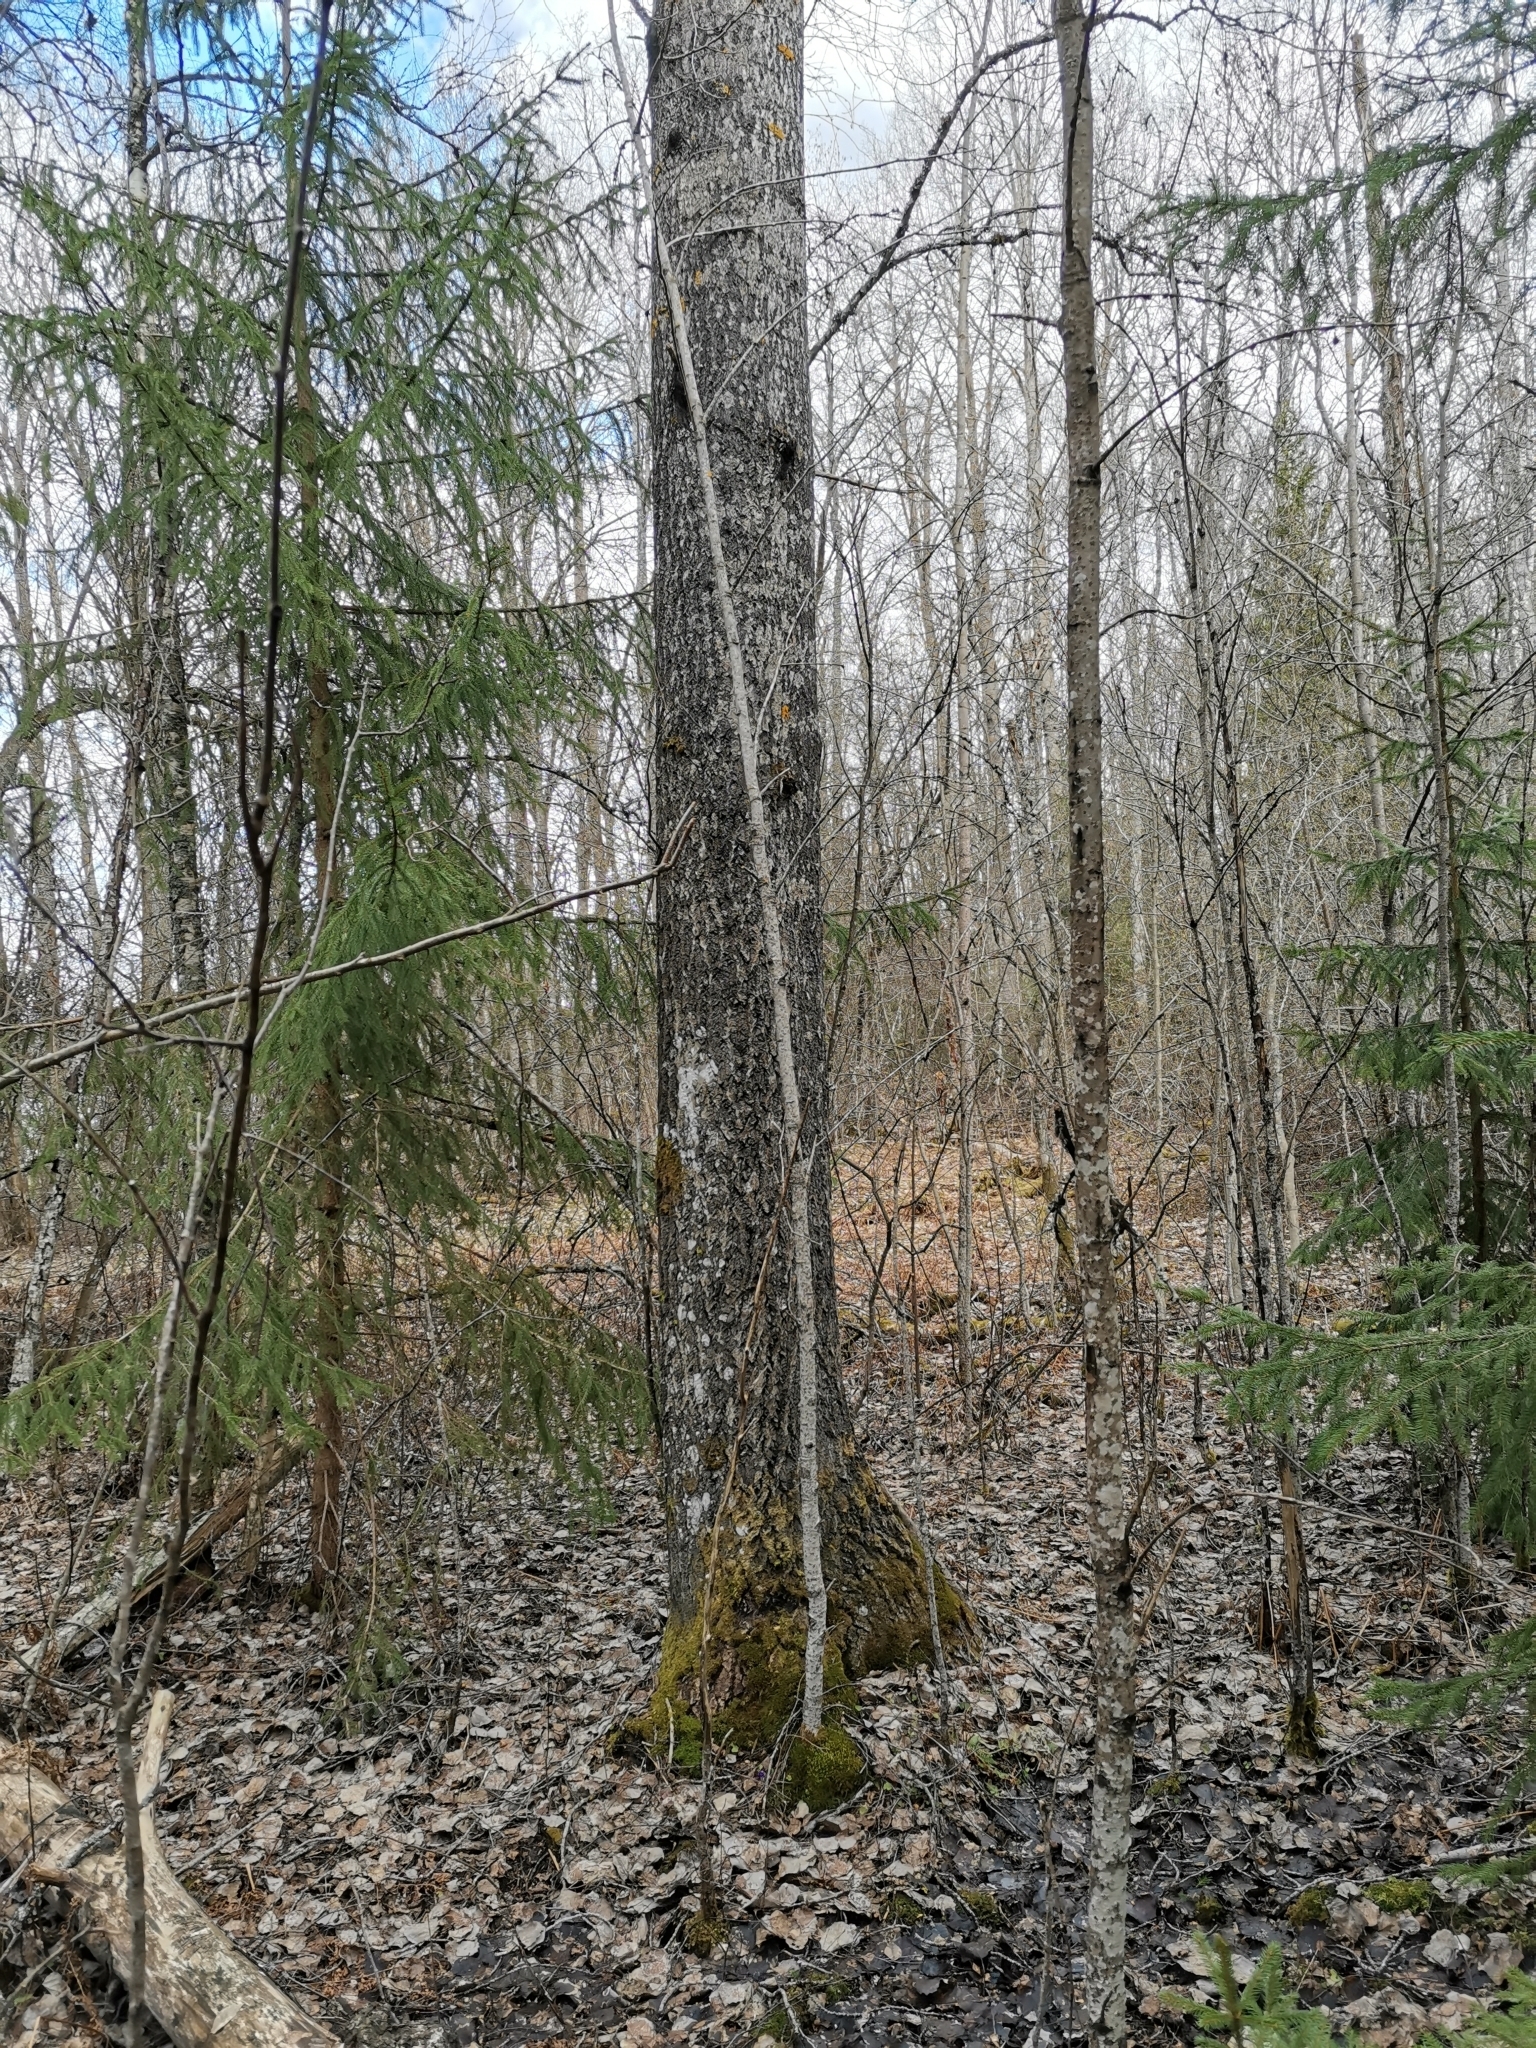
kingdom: Animalia
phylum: Chordata
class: Mammalia
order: Rodentia
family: Sciuridae
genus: Pteromys
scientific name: Pteromys volans
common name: Siberian flying squirrel
